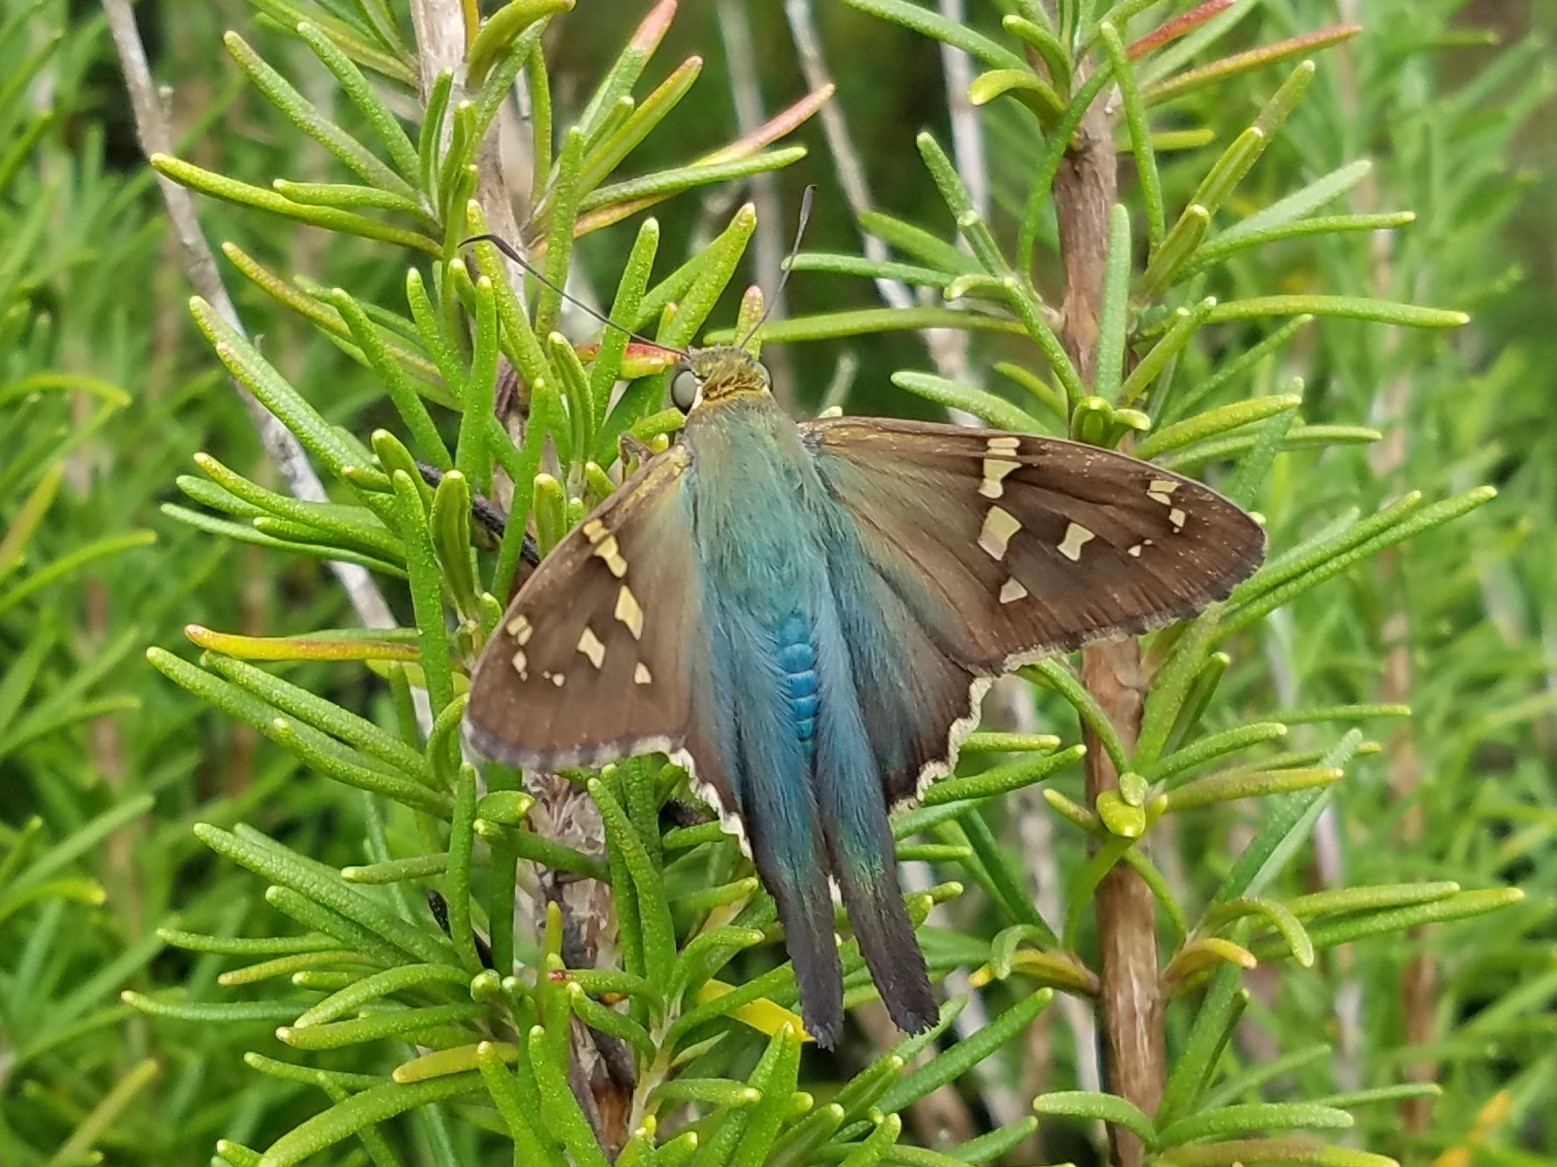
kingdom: Animalia
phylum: Arthropoda
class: Insecta
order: Lepidoptera
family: Hesperiidae
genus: Urbanus
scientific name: Urbanus proteus
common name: Long-tailed skipper
